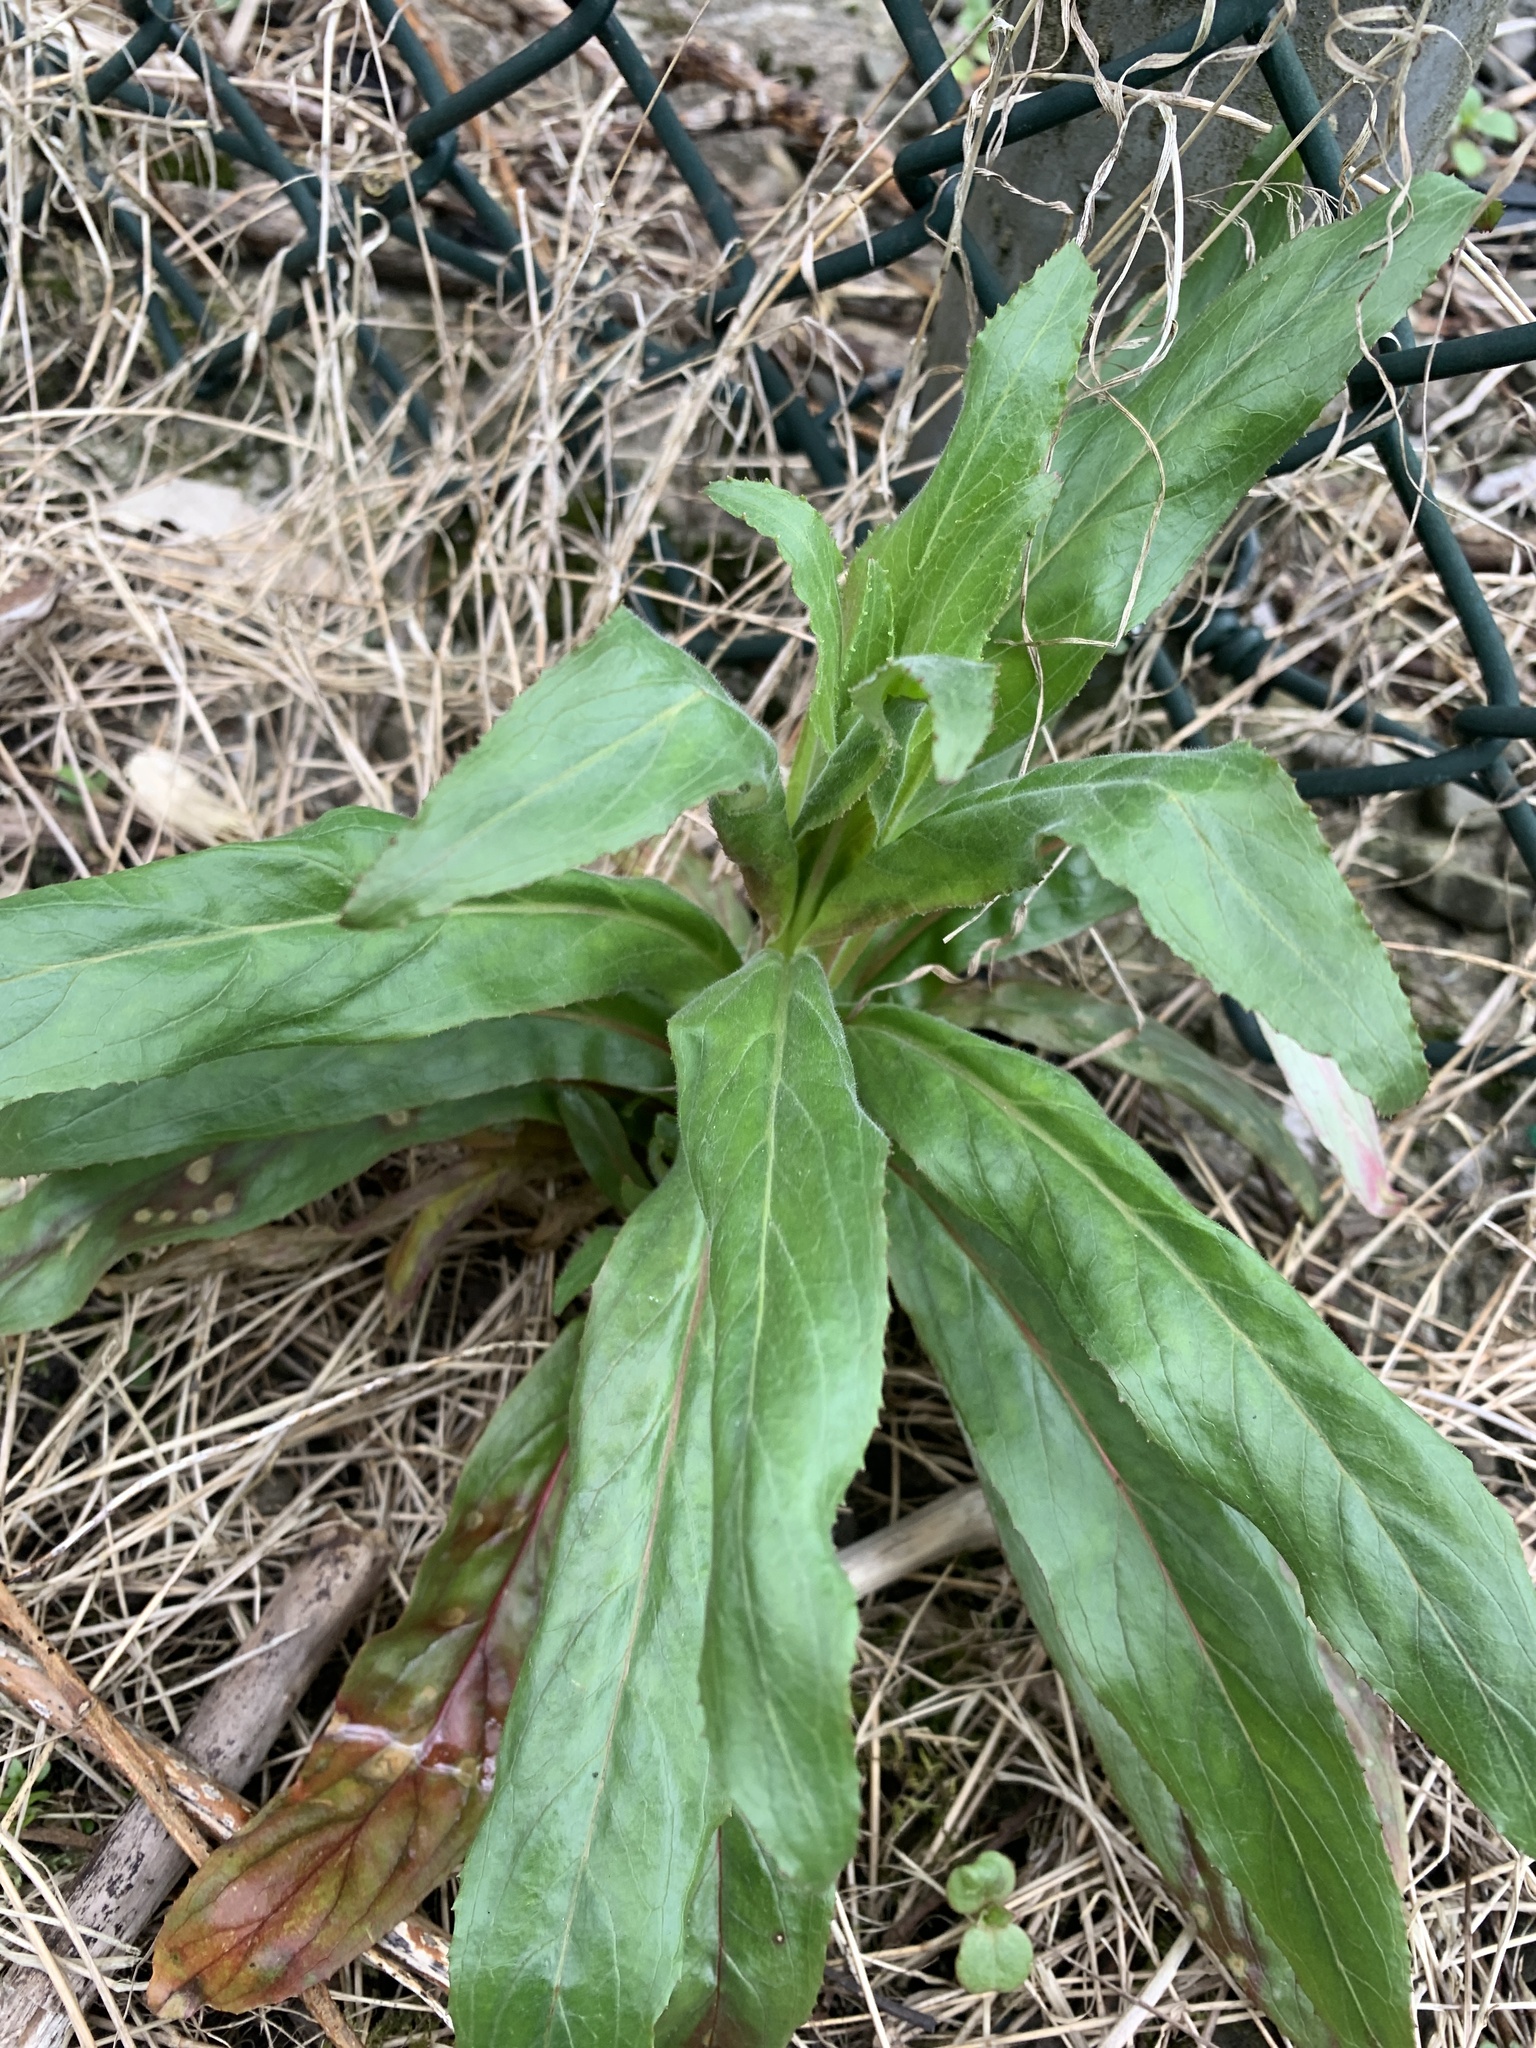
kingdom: Plantae
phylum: Tracheophyta
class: Magnoliopsida
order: Myrtales
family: Onagraceae
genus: Epilobium
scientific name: Epilobium hirsutum
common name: Great willowherb
